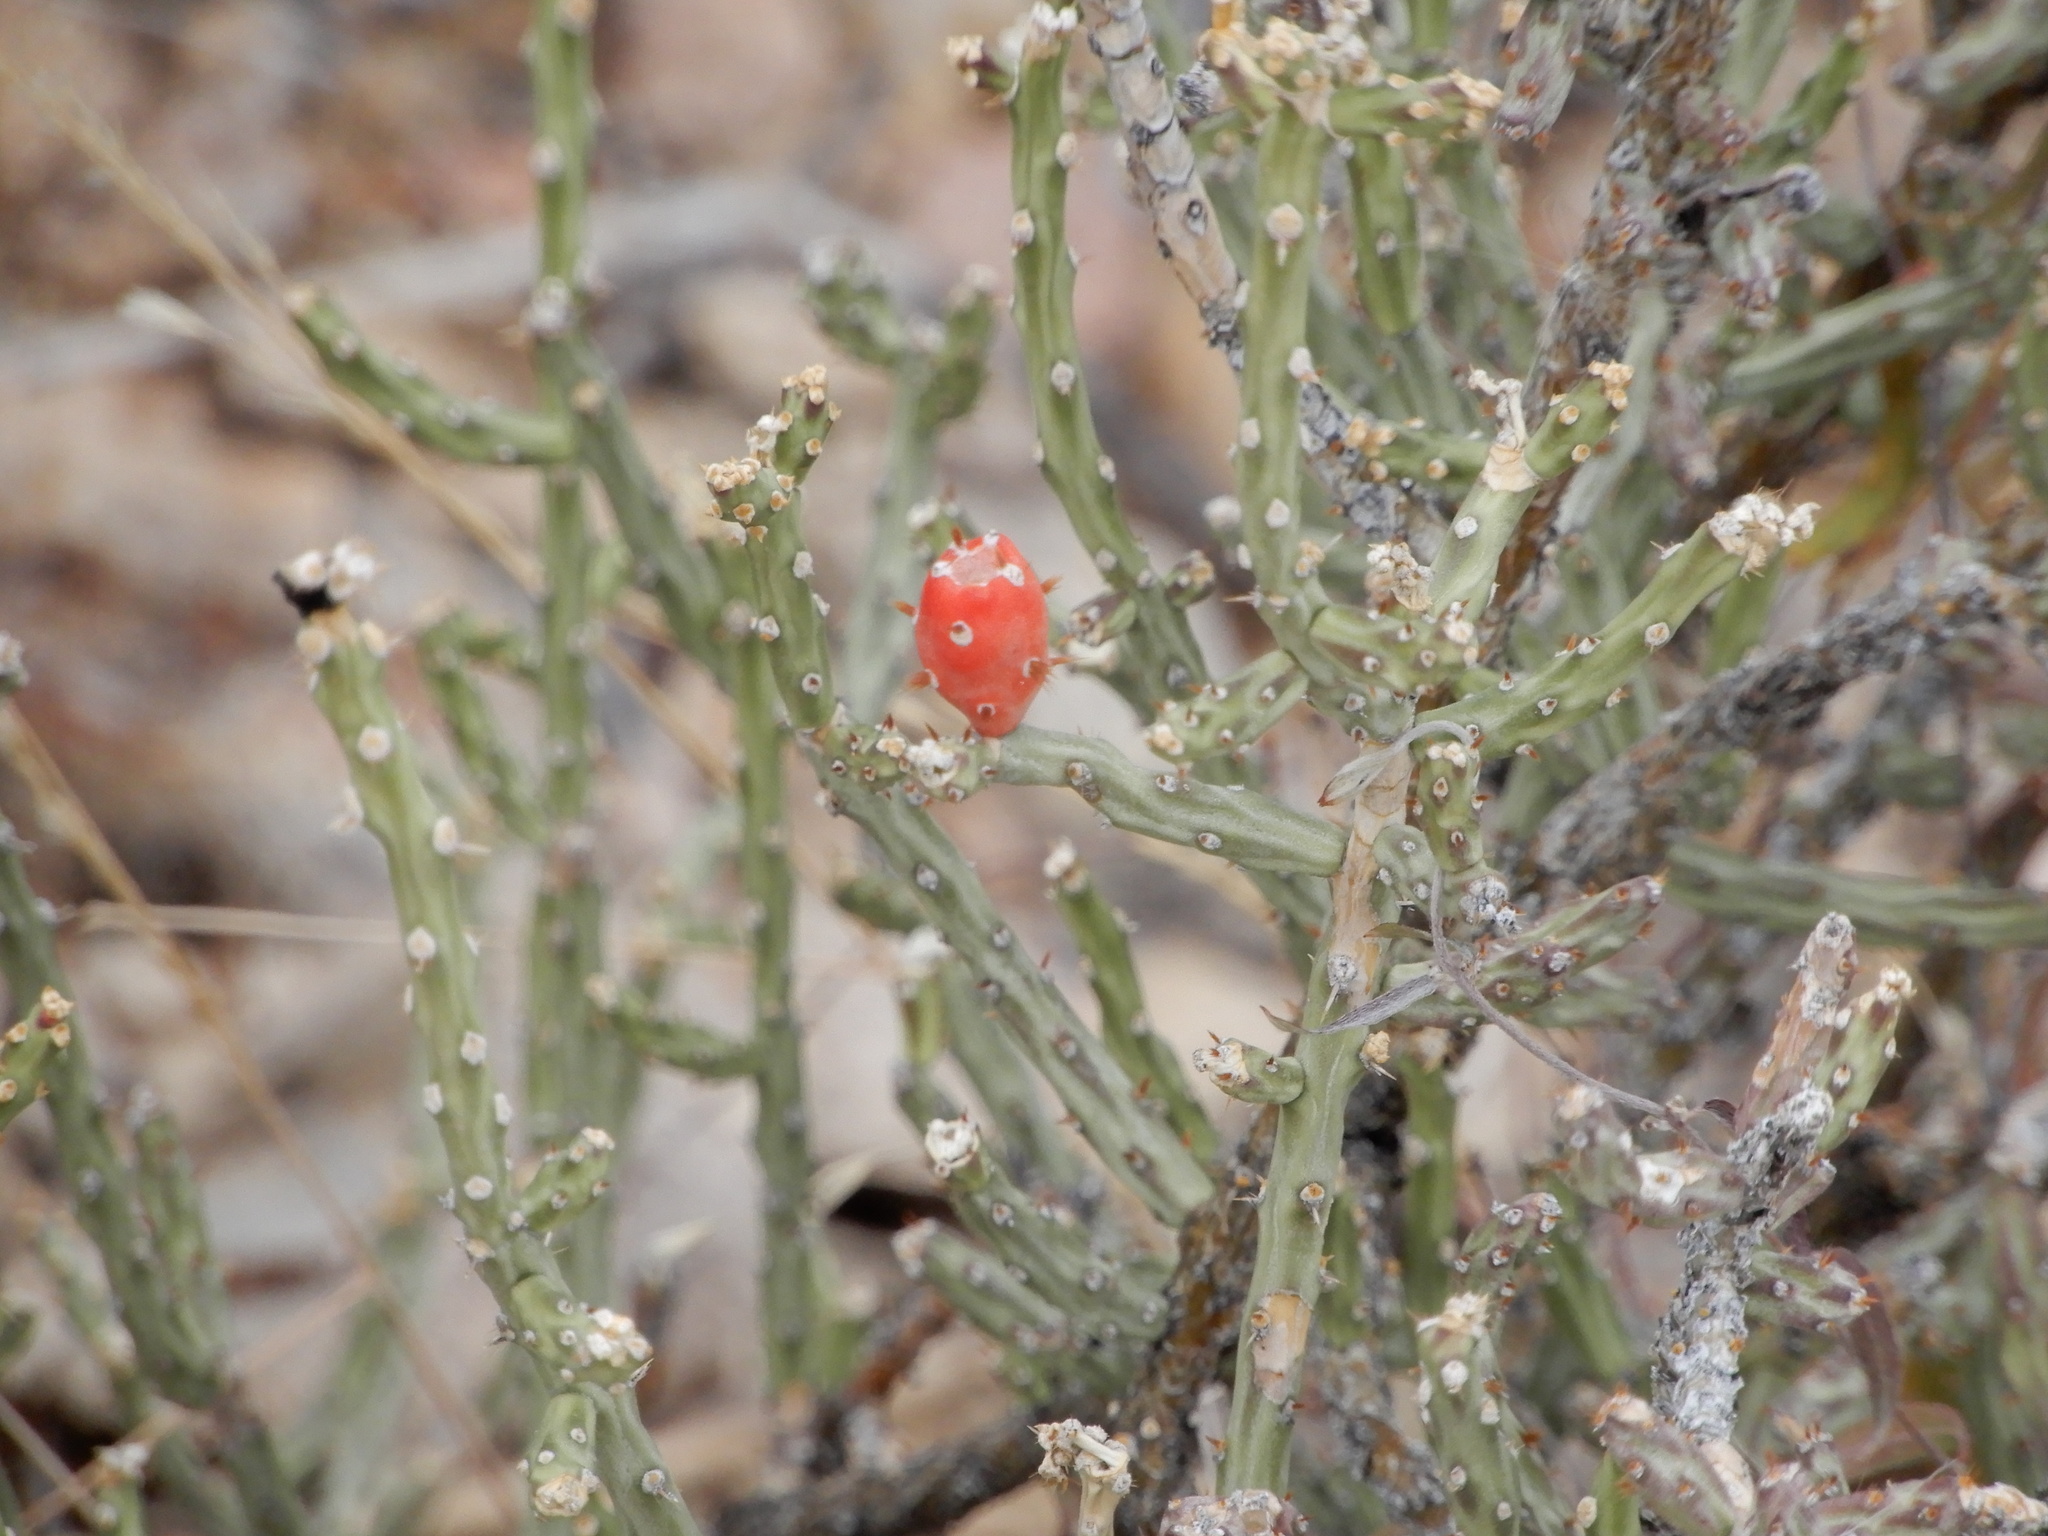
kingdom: Plantae
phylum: Tracheophyta
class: Magnoliopsida
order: Caryophyllales
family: Cactaceae
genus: Cylindropuntia
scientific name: Cylindropuntia leptocaulis
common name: Christmas cactus
